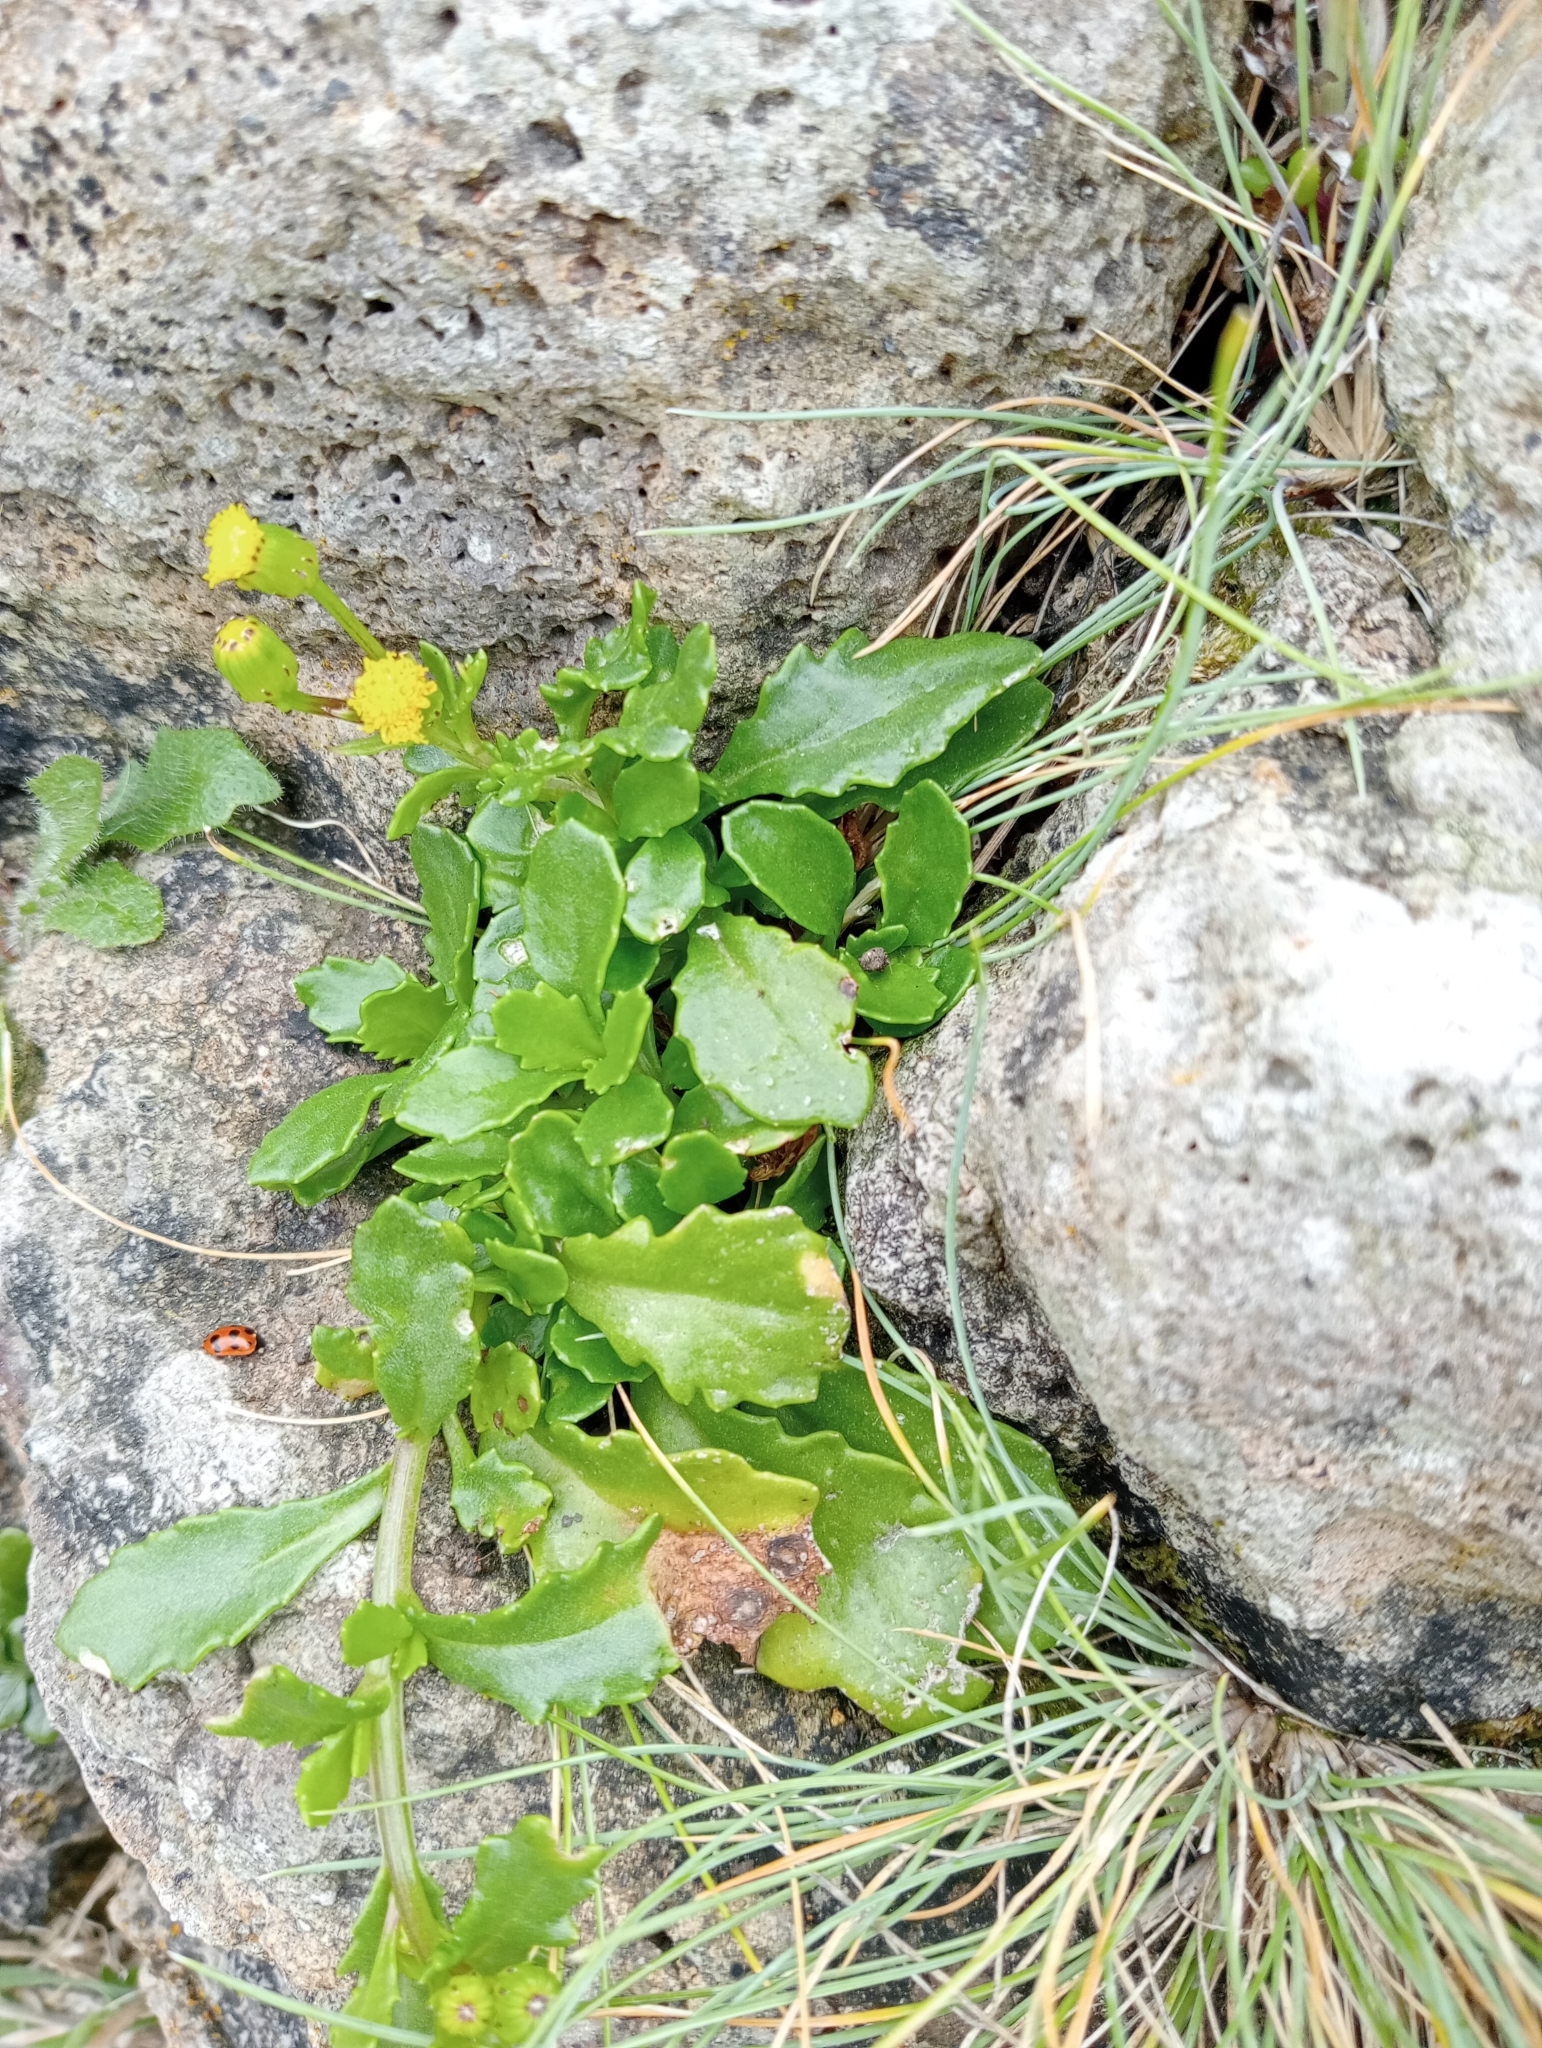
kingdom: Plantae
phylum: Tracheophyta
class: Magnoliopsida
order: Asterales
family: Asteraceae
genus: Senecio
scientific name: Senecio matatini
